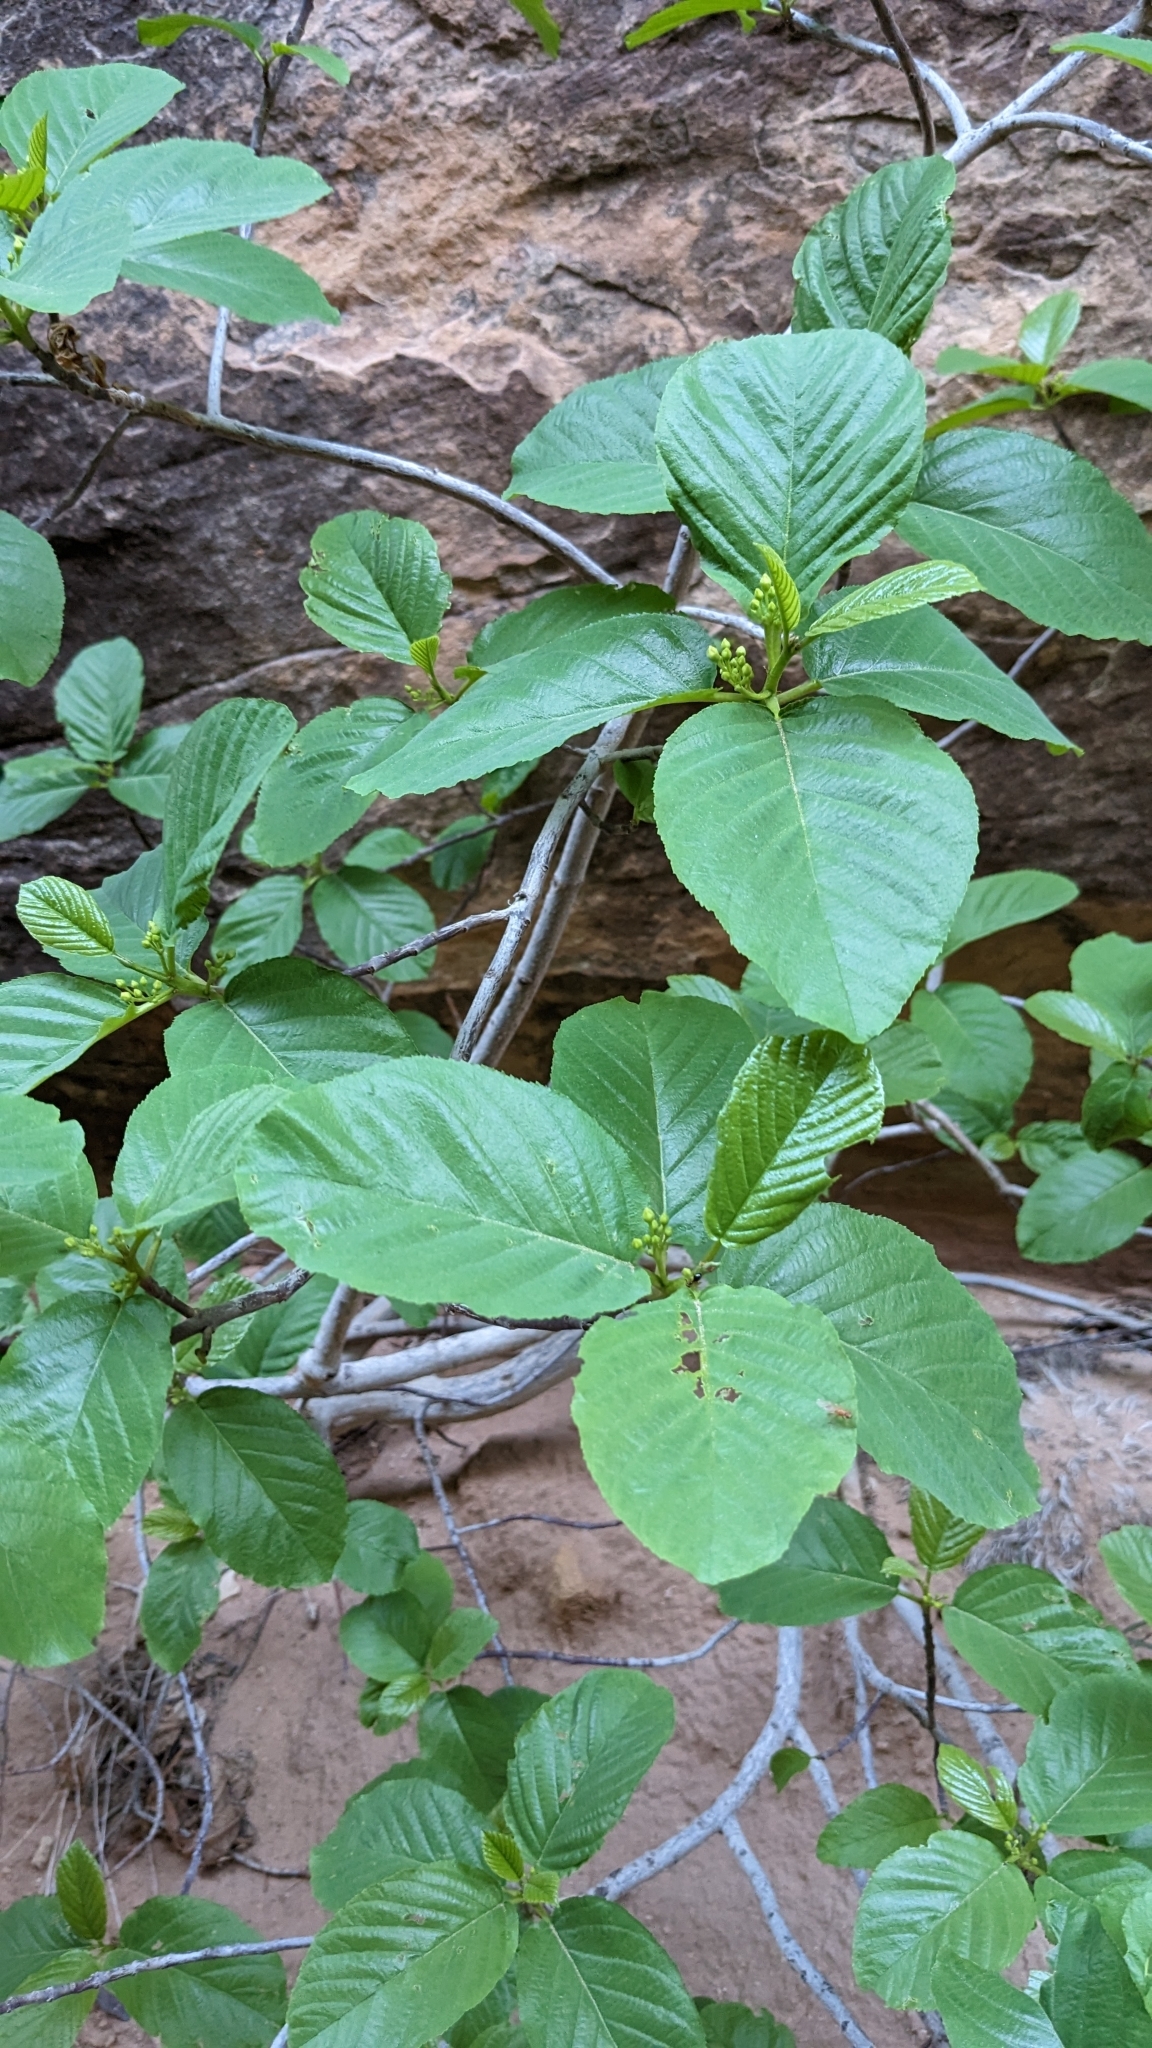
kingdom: Plantae
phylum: Tracheophyta
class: Magnoliopsida
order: Rosales
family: Rhamnaceae
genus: Frangula
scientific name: Frangula betulifolia
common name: Birch-leaf buckthorn
